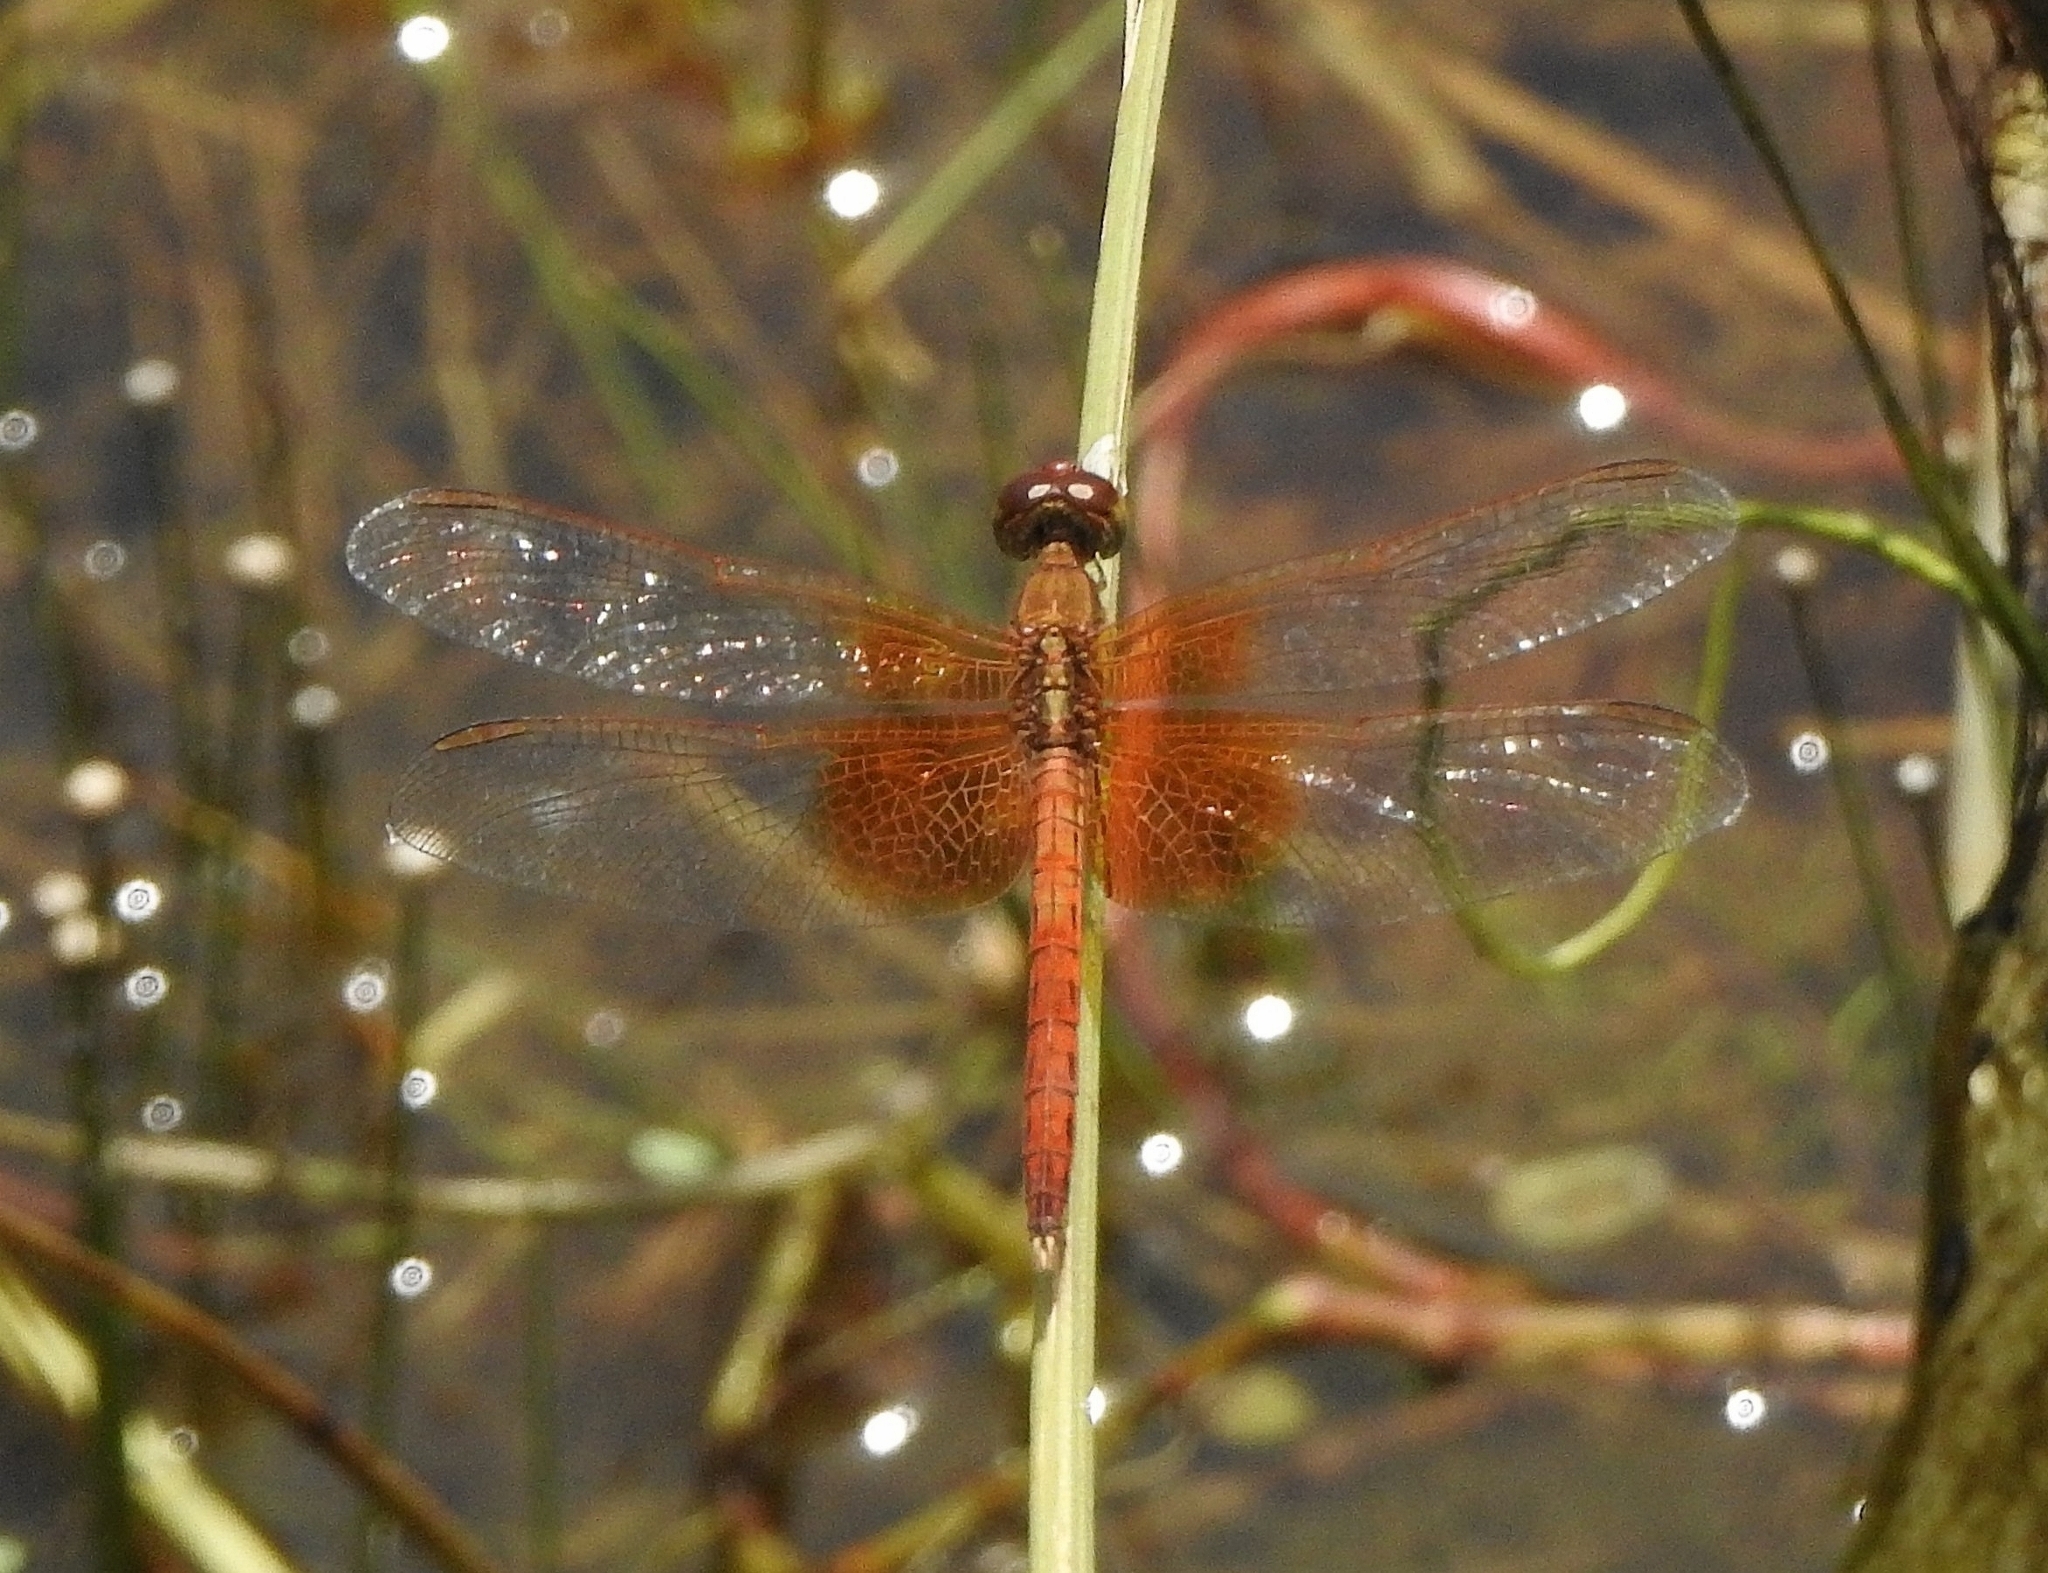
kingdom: Animalia
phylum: Arthropoda
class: Insecta
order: Odonata
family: Libellulidae
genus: Neurothemis
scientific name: Neurothemis intermedia
